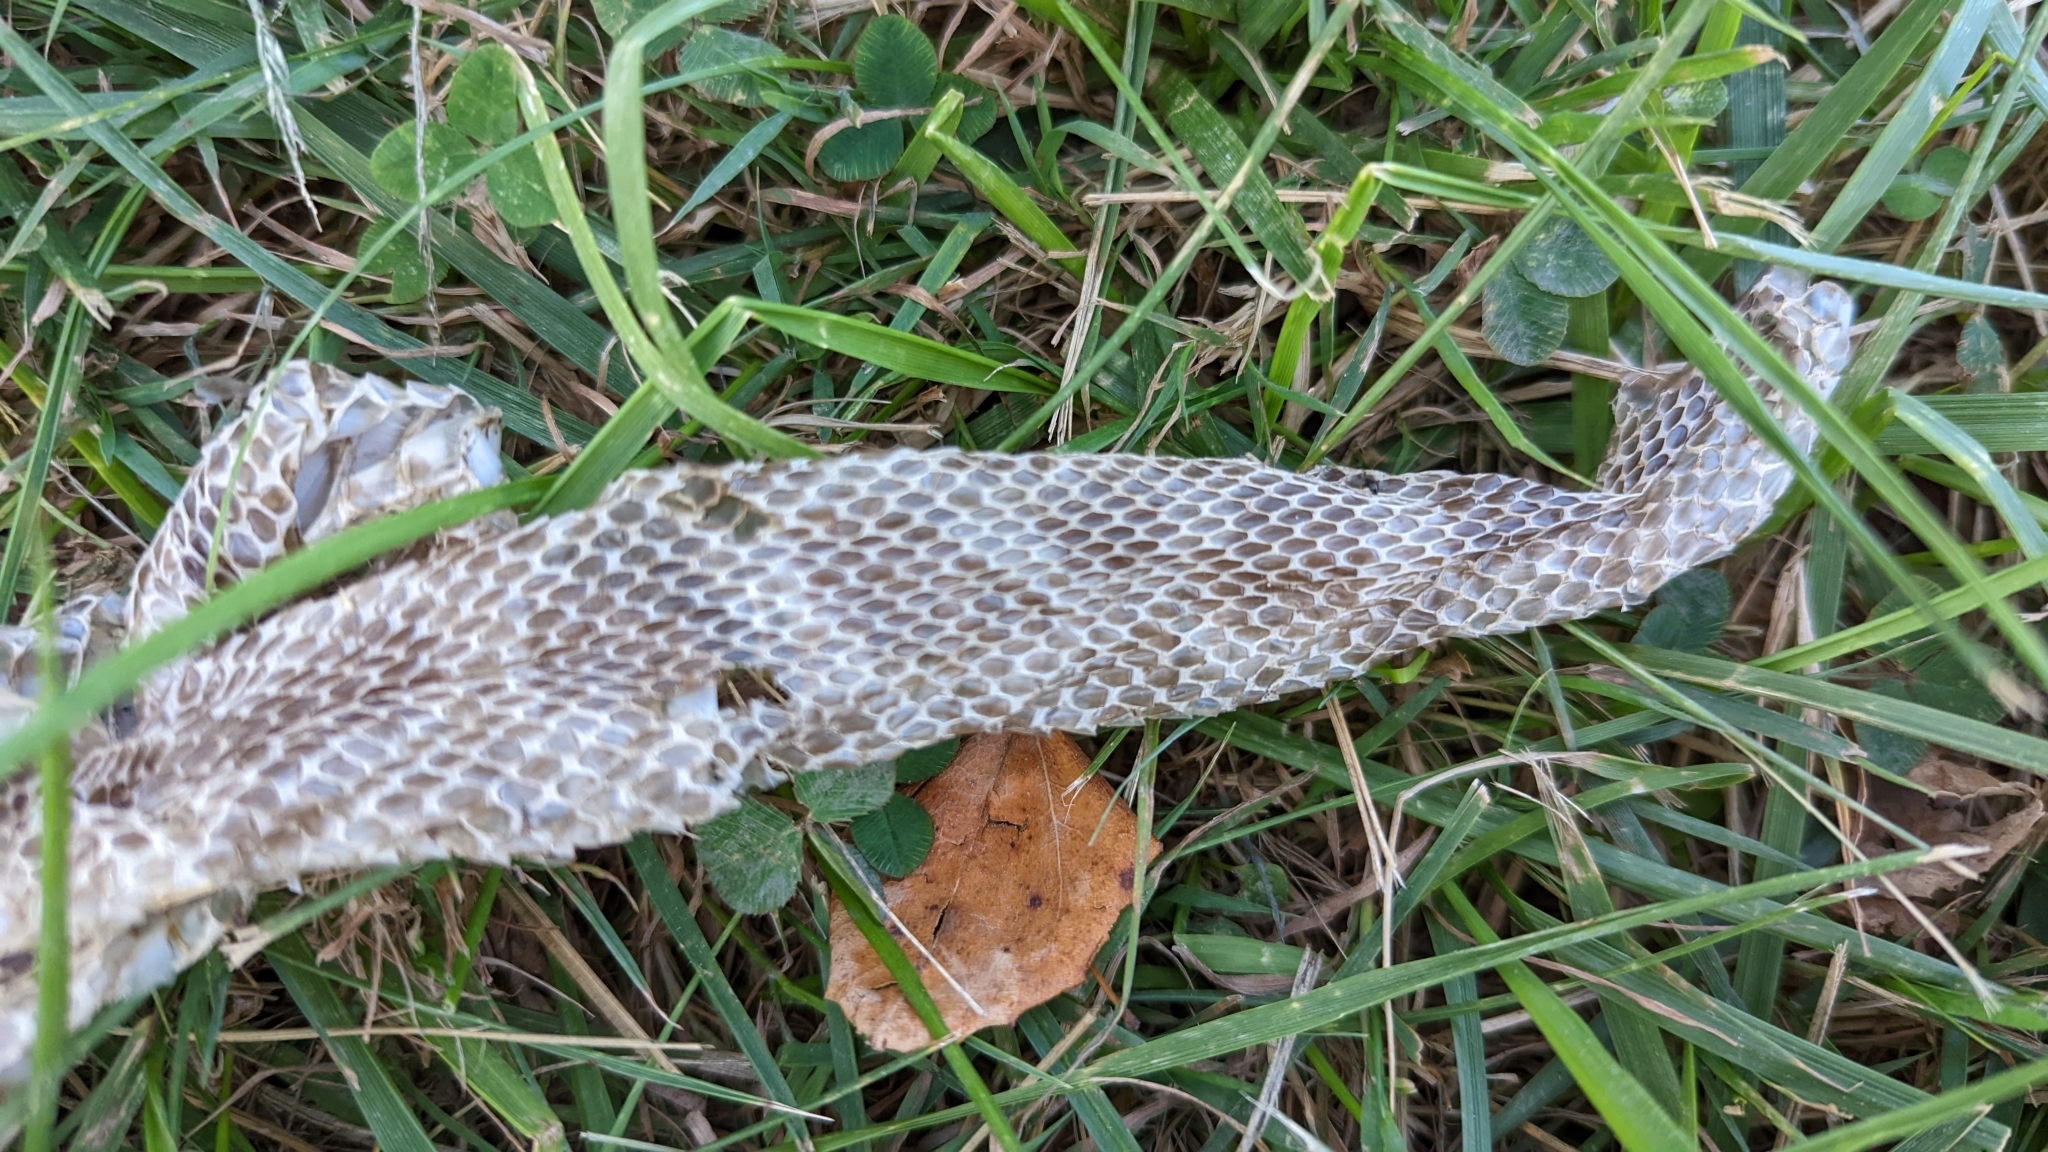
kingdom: Animalia
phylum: Chordata
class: Squamata
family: Colubridae
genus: Pantherophis
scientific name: Pantherophis vulpinus
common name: Eastern fox snake
